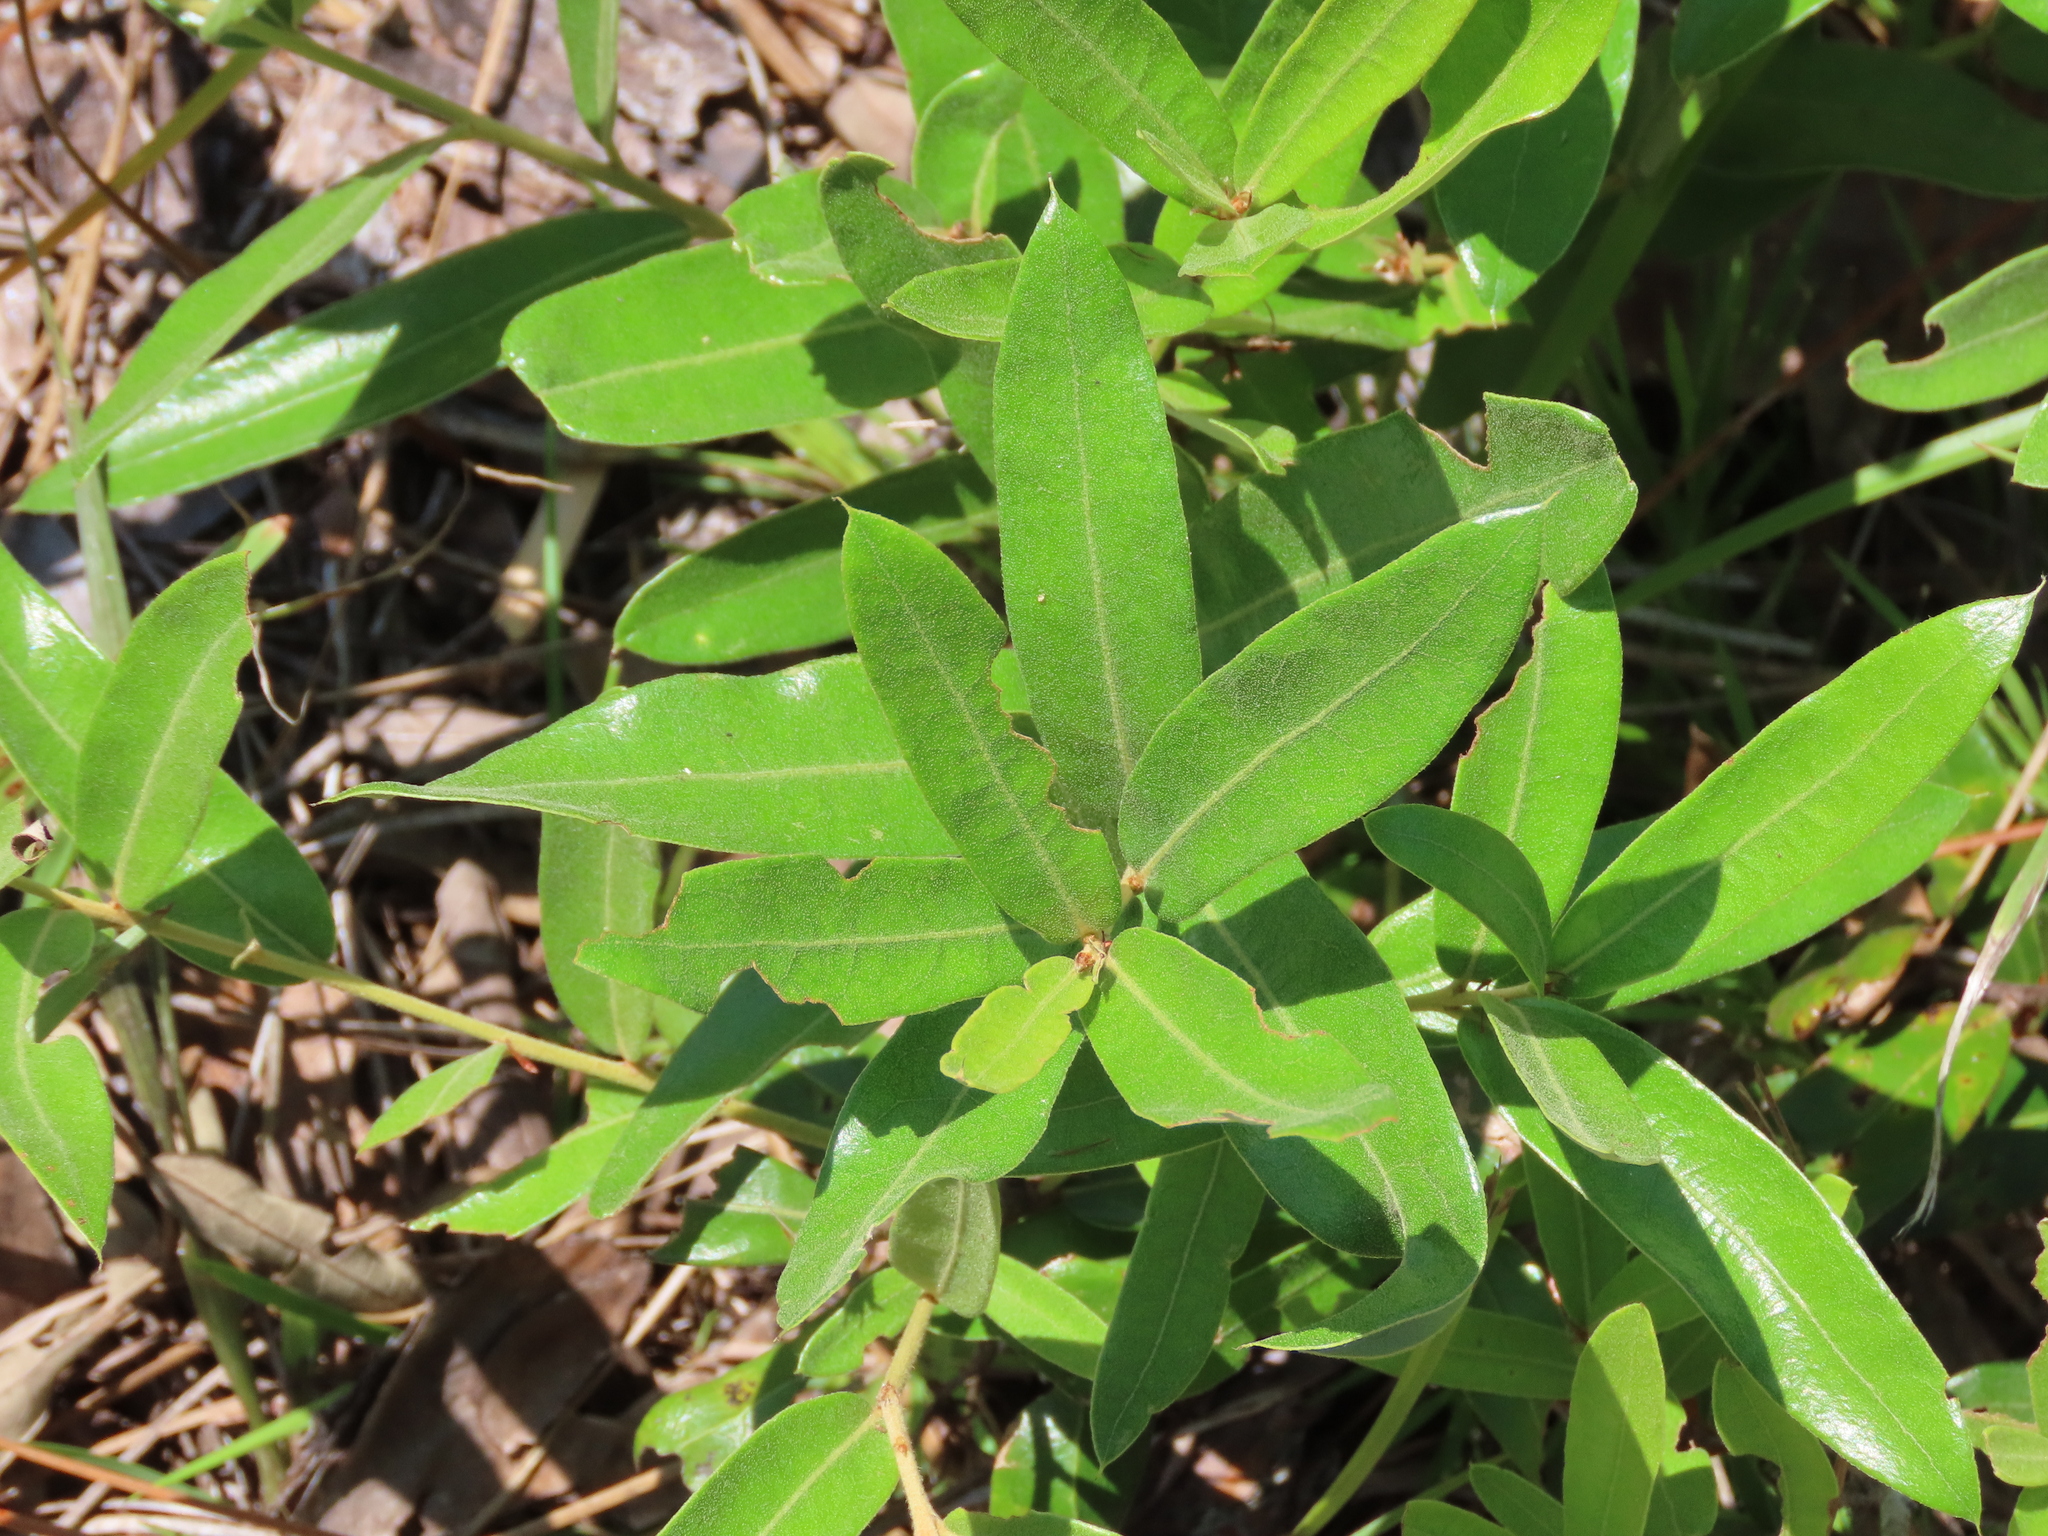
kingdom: Plantae
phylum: Tracheophyta
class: Magnoliopsida
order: Fagales
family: Fagaceae
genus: Quercus
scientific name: Quercus pumila
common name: Runner oak
